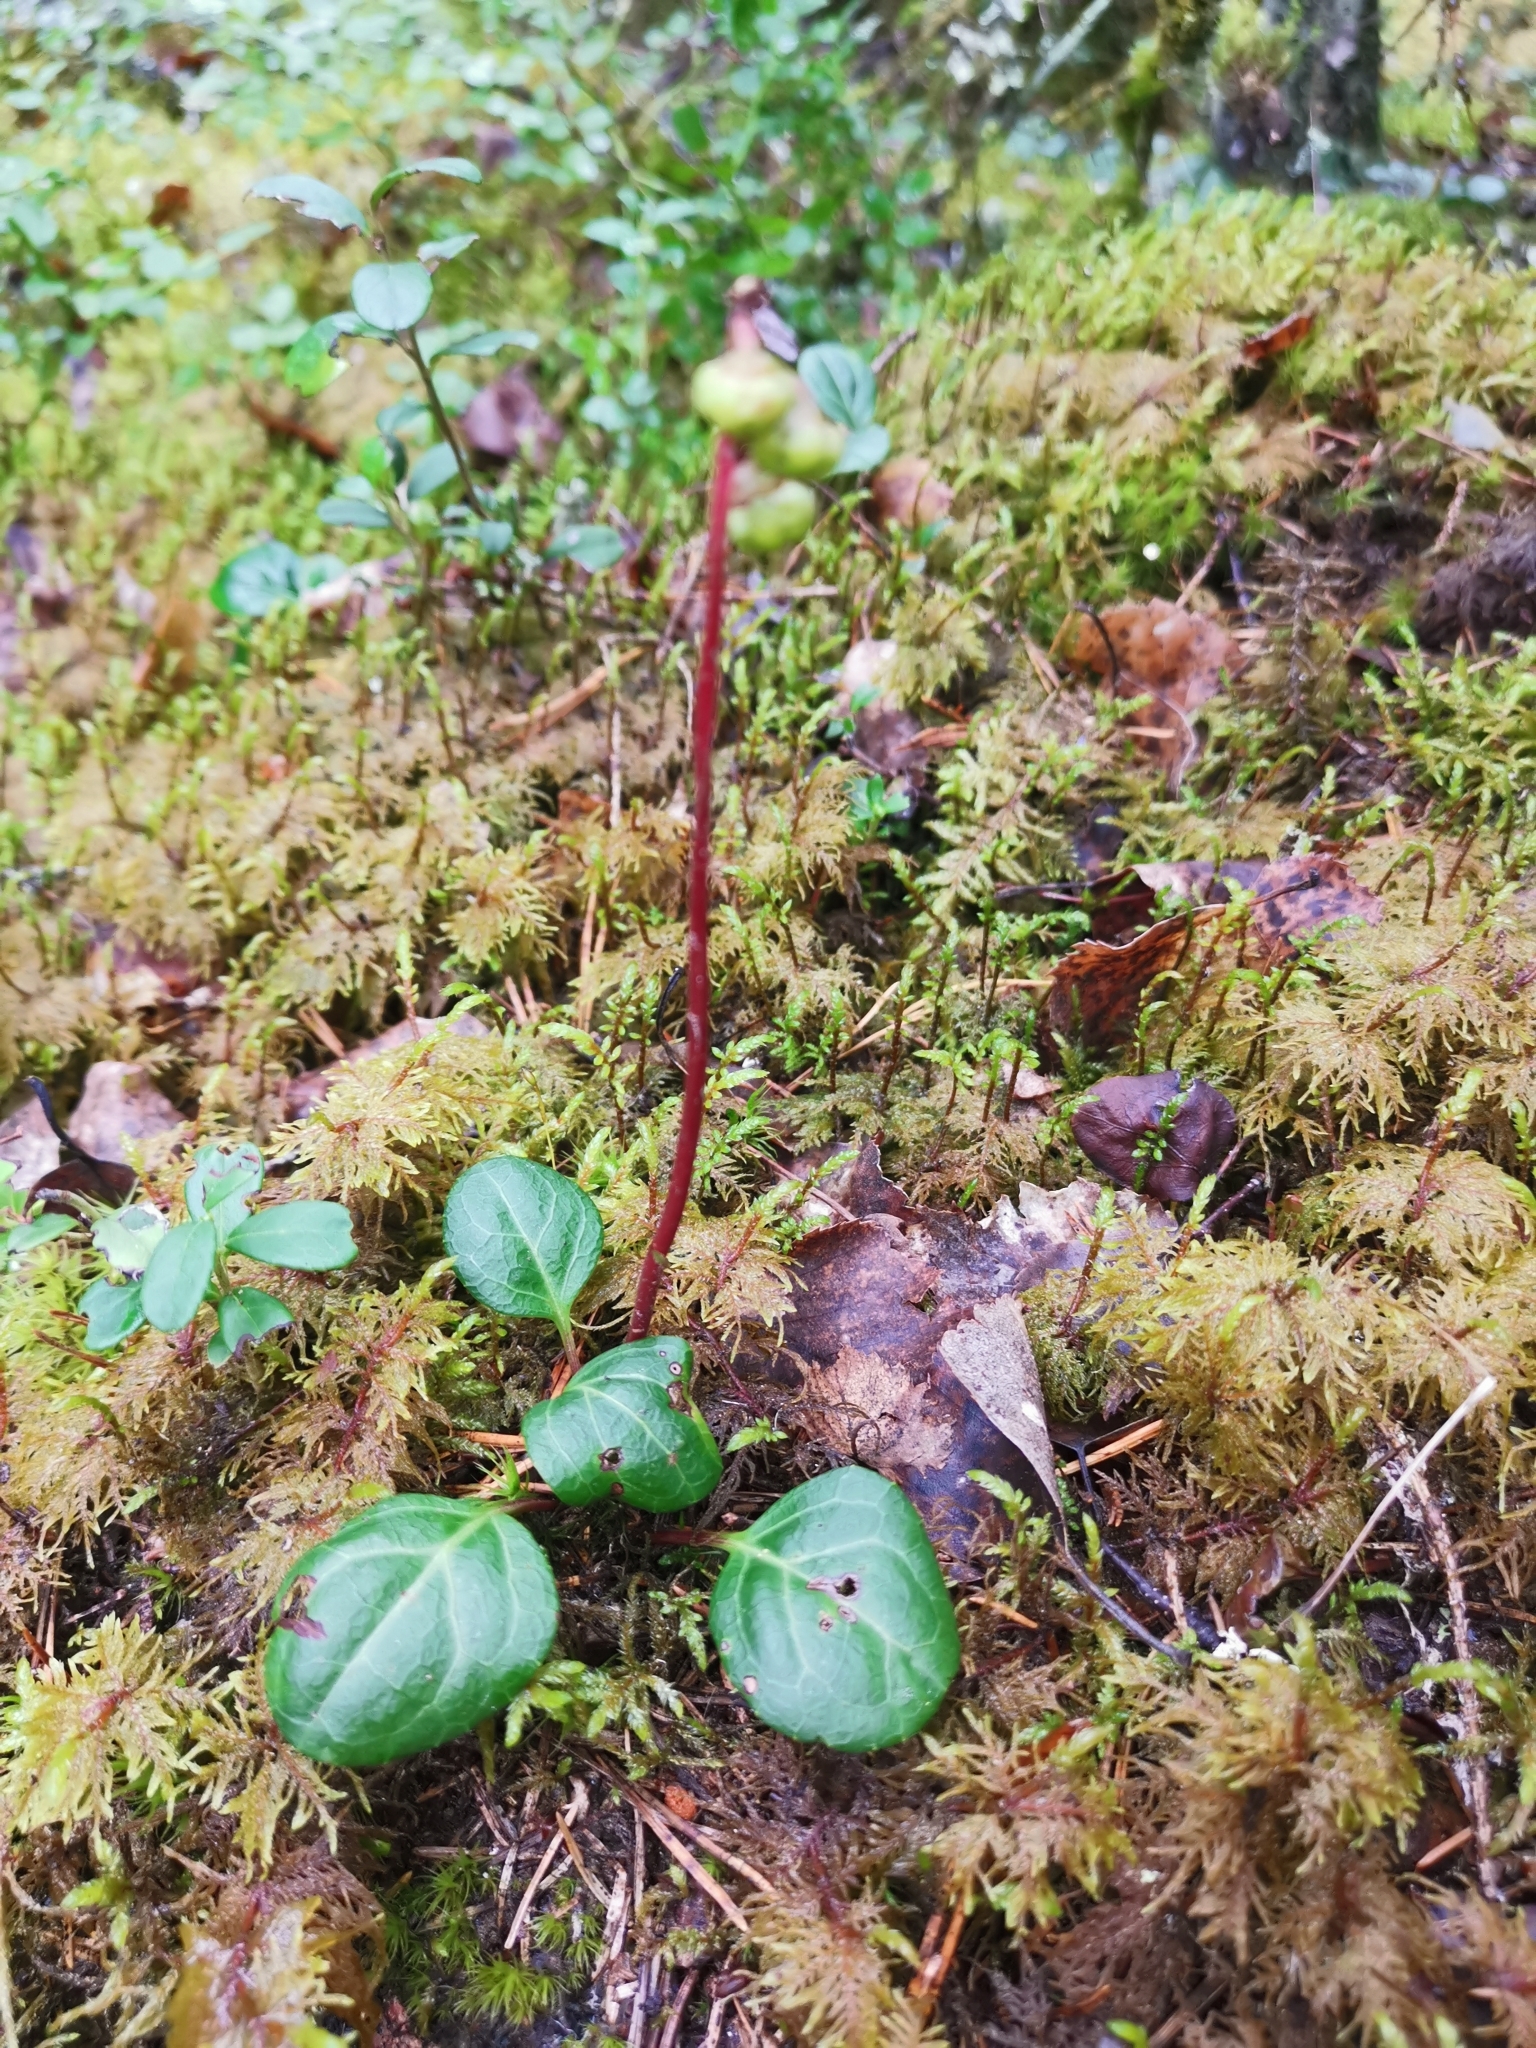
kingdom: Plantae
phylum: Tracheophyta
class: Magnoliopsida
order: Ericales
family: Ericaceae
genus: Pyrola
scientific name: Pyrola chlorantha
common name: Green wintergreen
